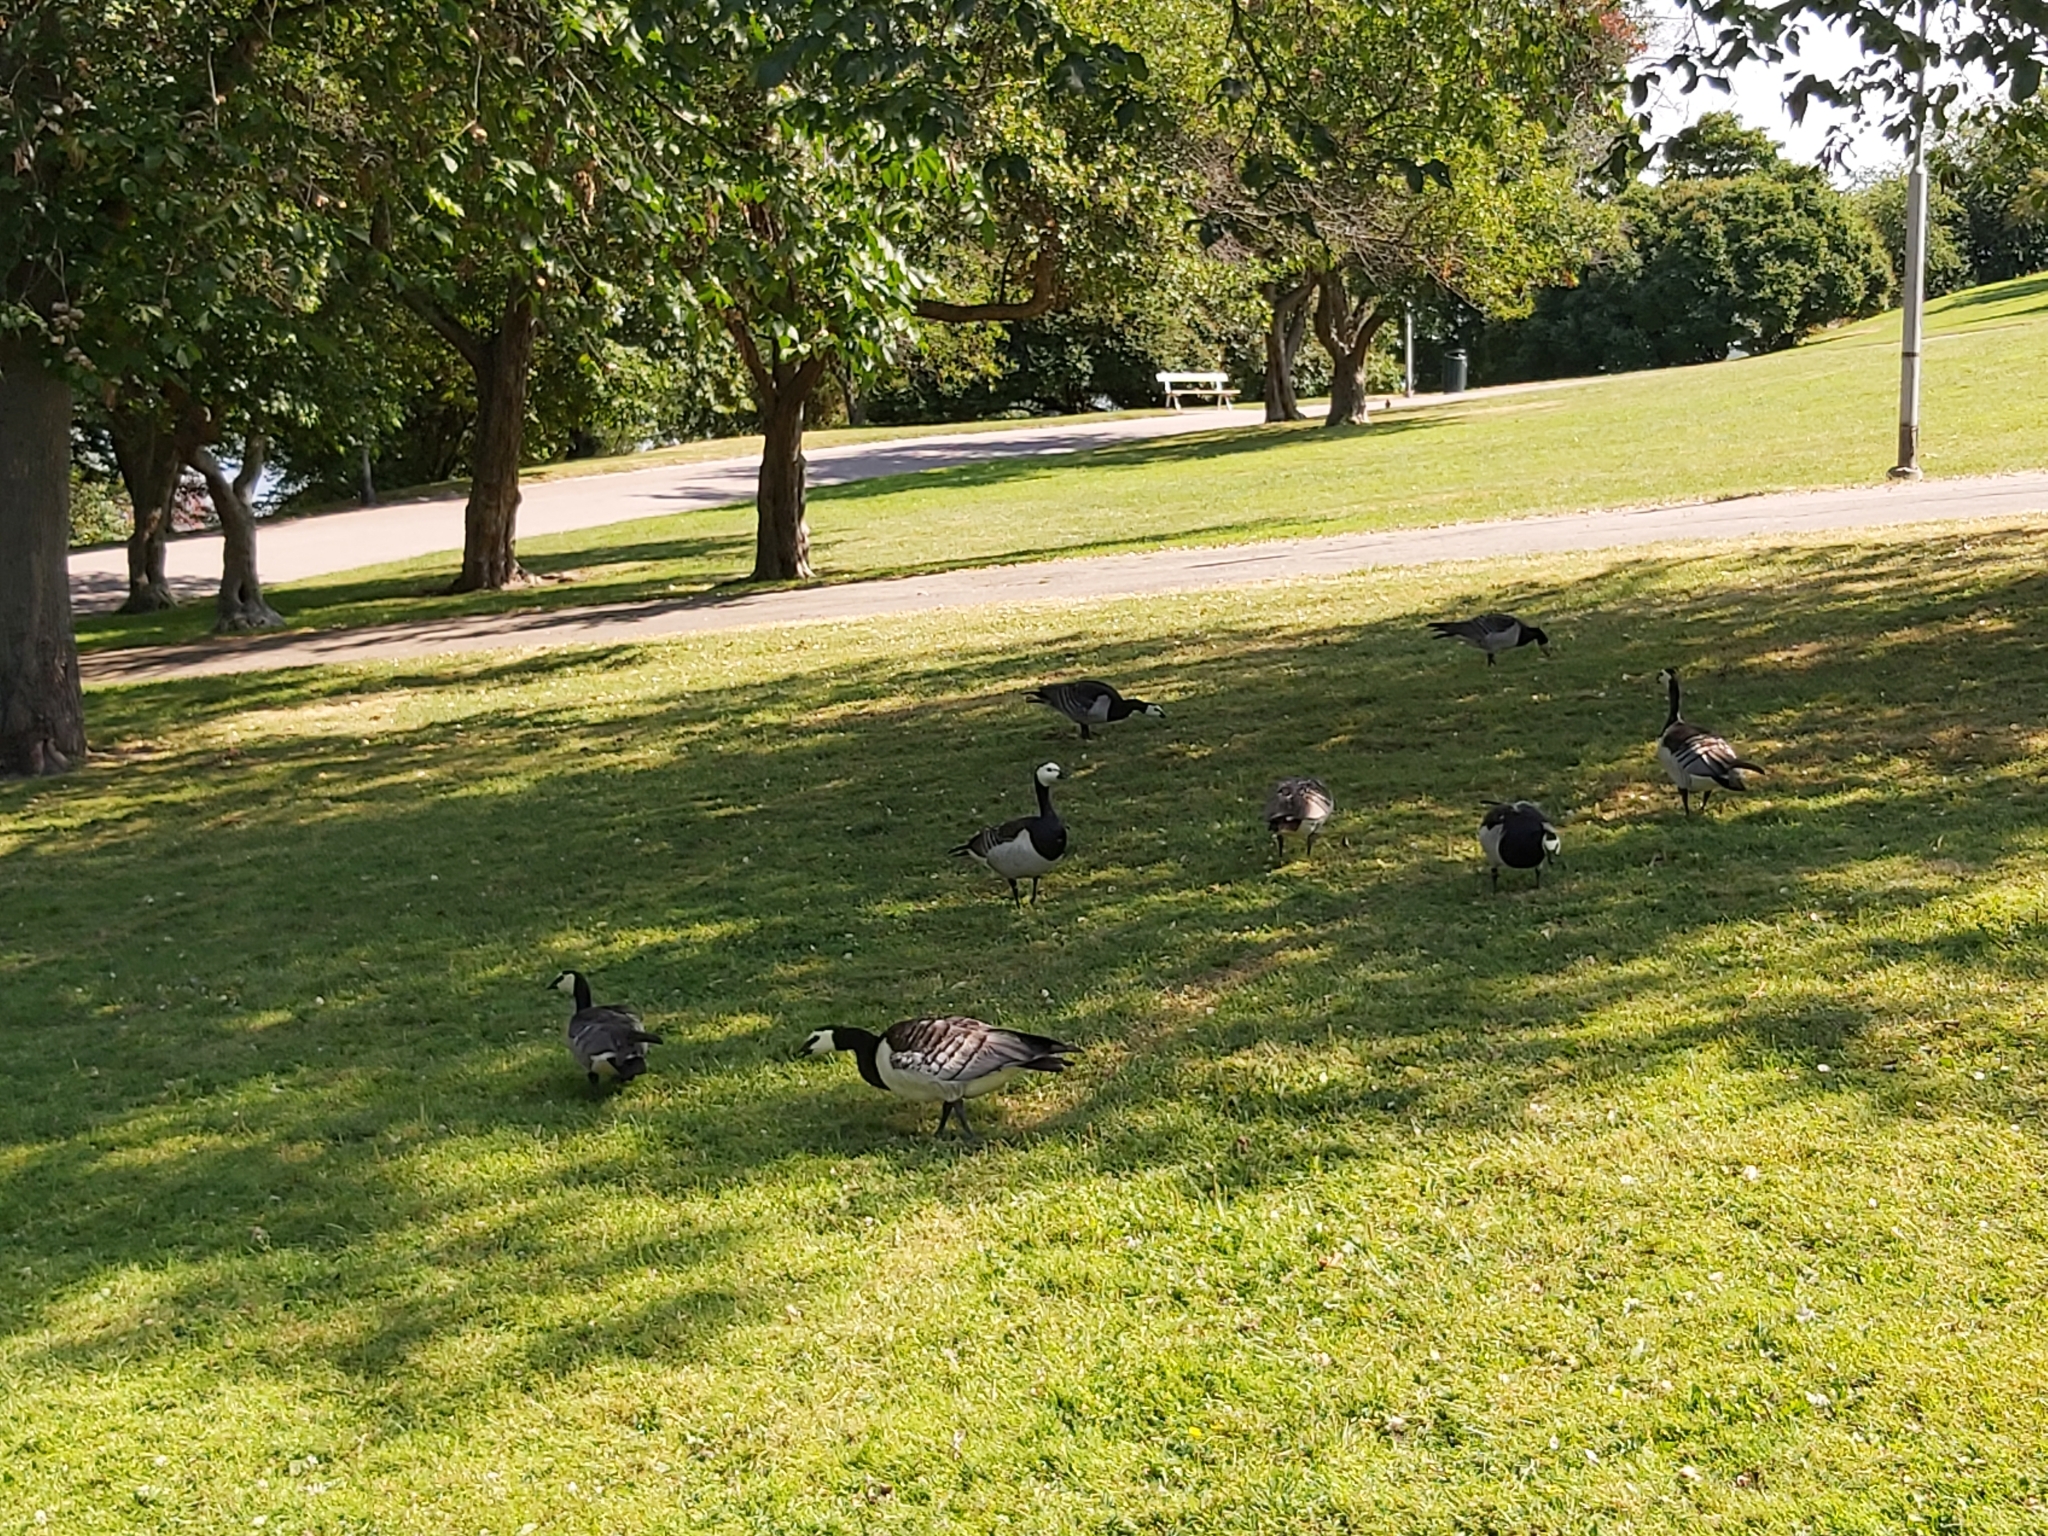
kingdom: Animalia
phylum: Chordata
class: Aves
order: Anseriformes
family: Anatidae
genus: Branta
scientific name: Branta leucopsis
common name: Barnacle goose
